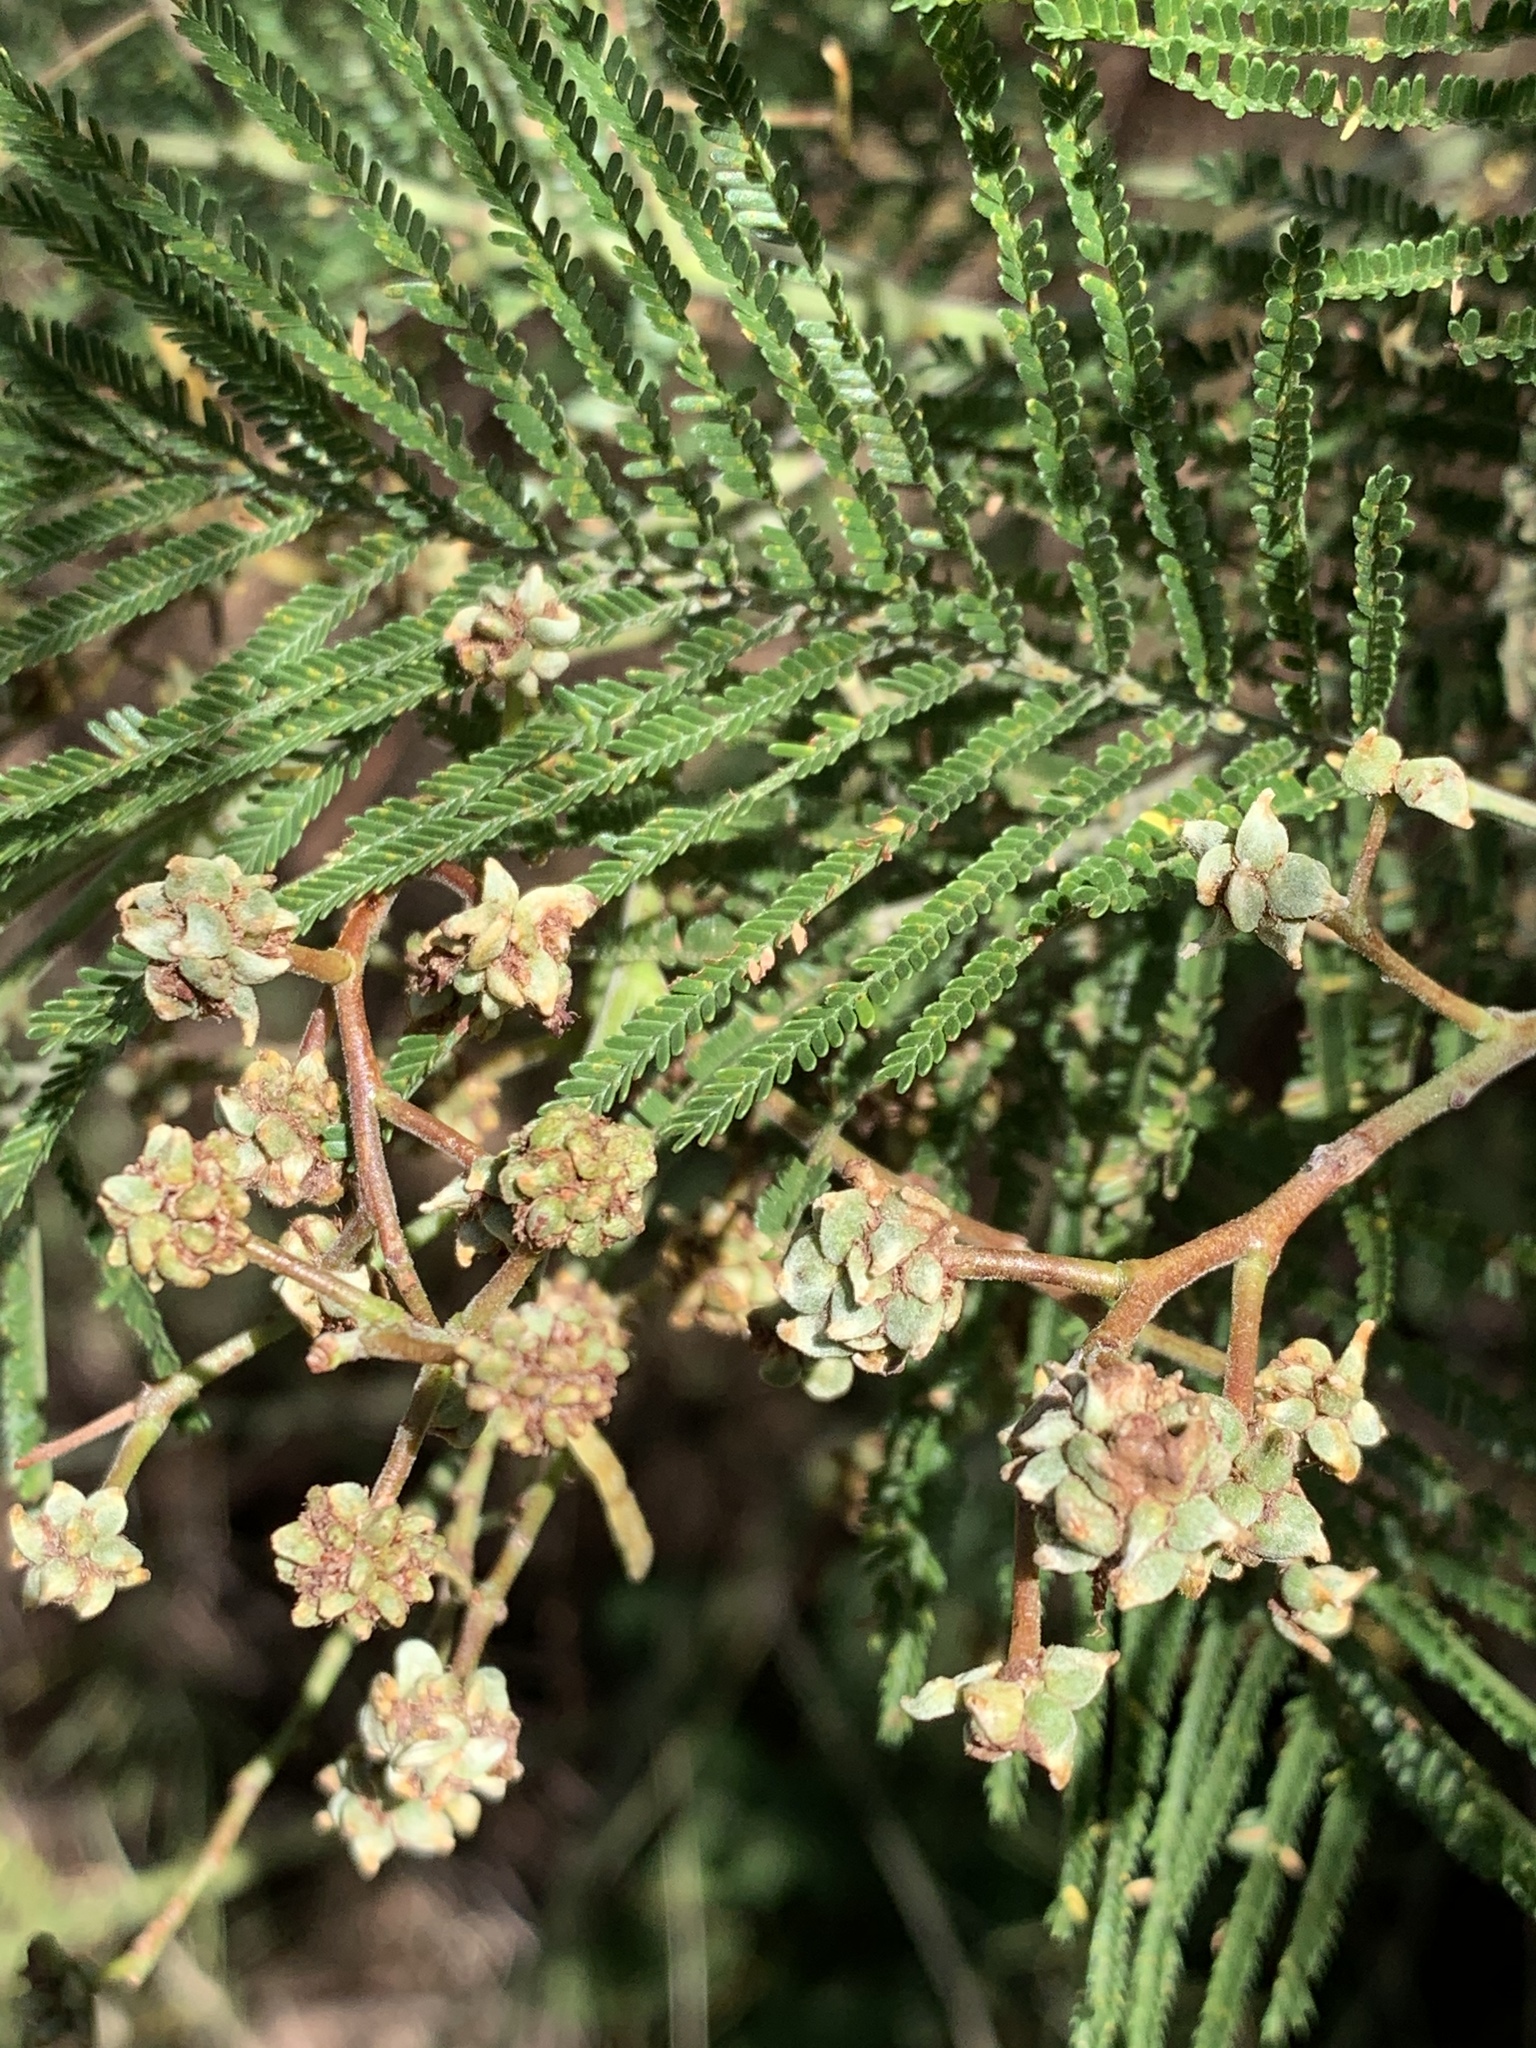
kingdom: Plantae
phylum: Tracheophyta
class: Magnoliopsida
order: Fabales
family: Fabaceae
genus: Acacia
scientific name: Acacia mearnsii
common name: Black wattle
